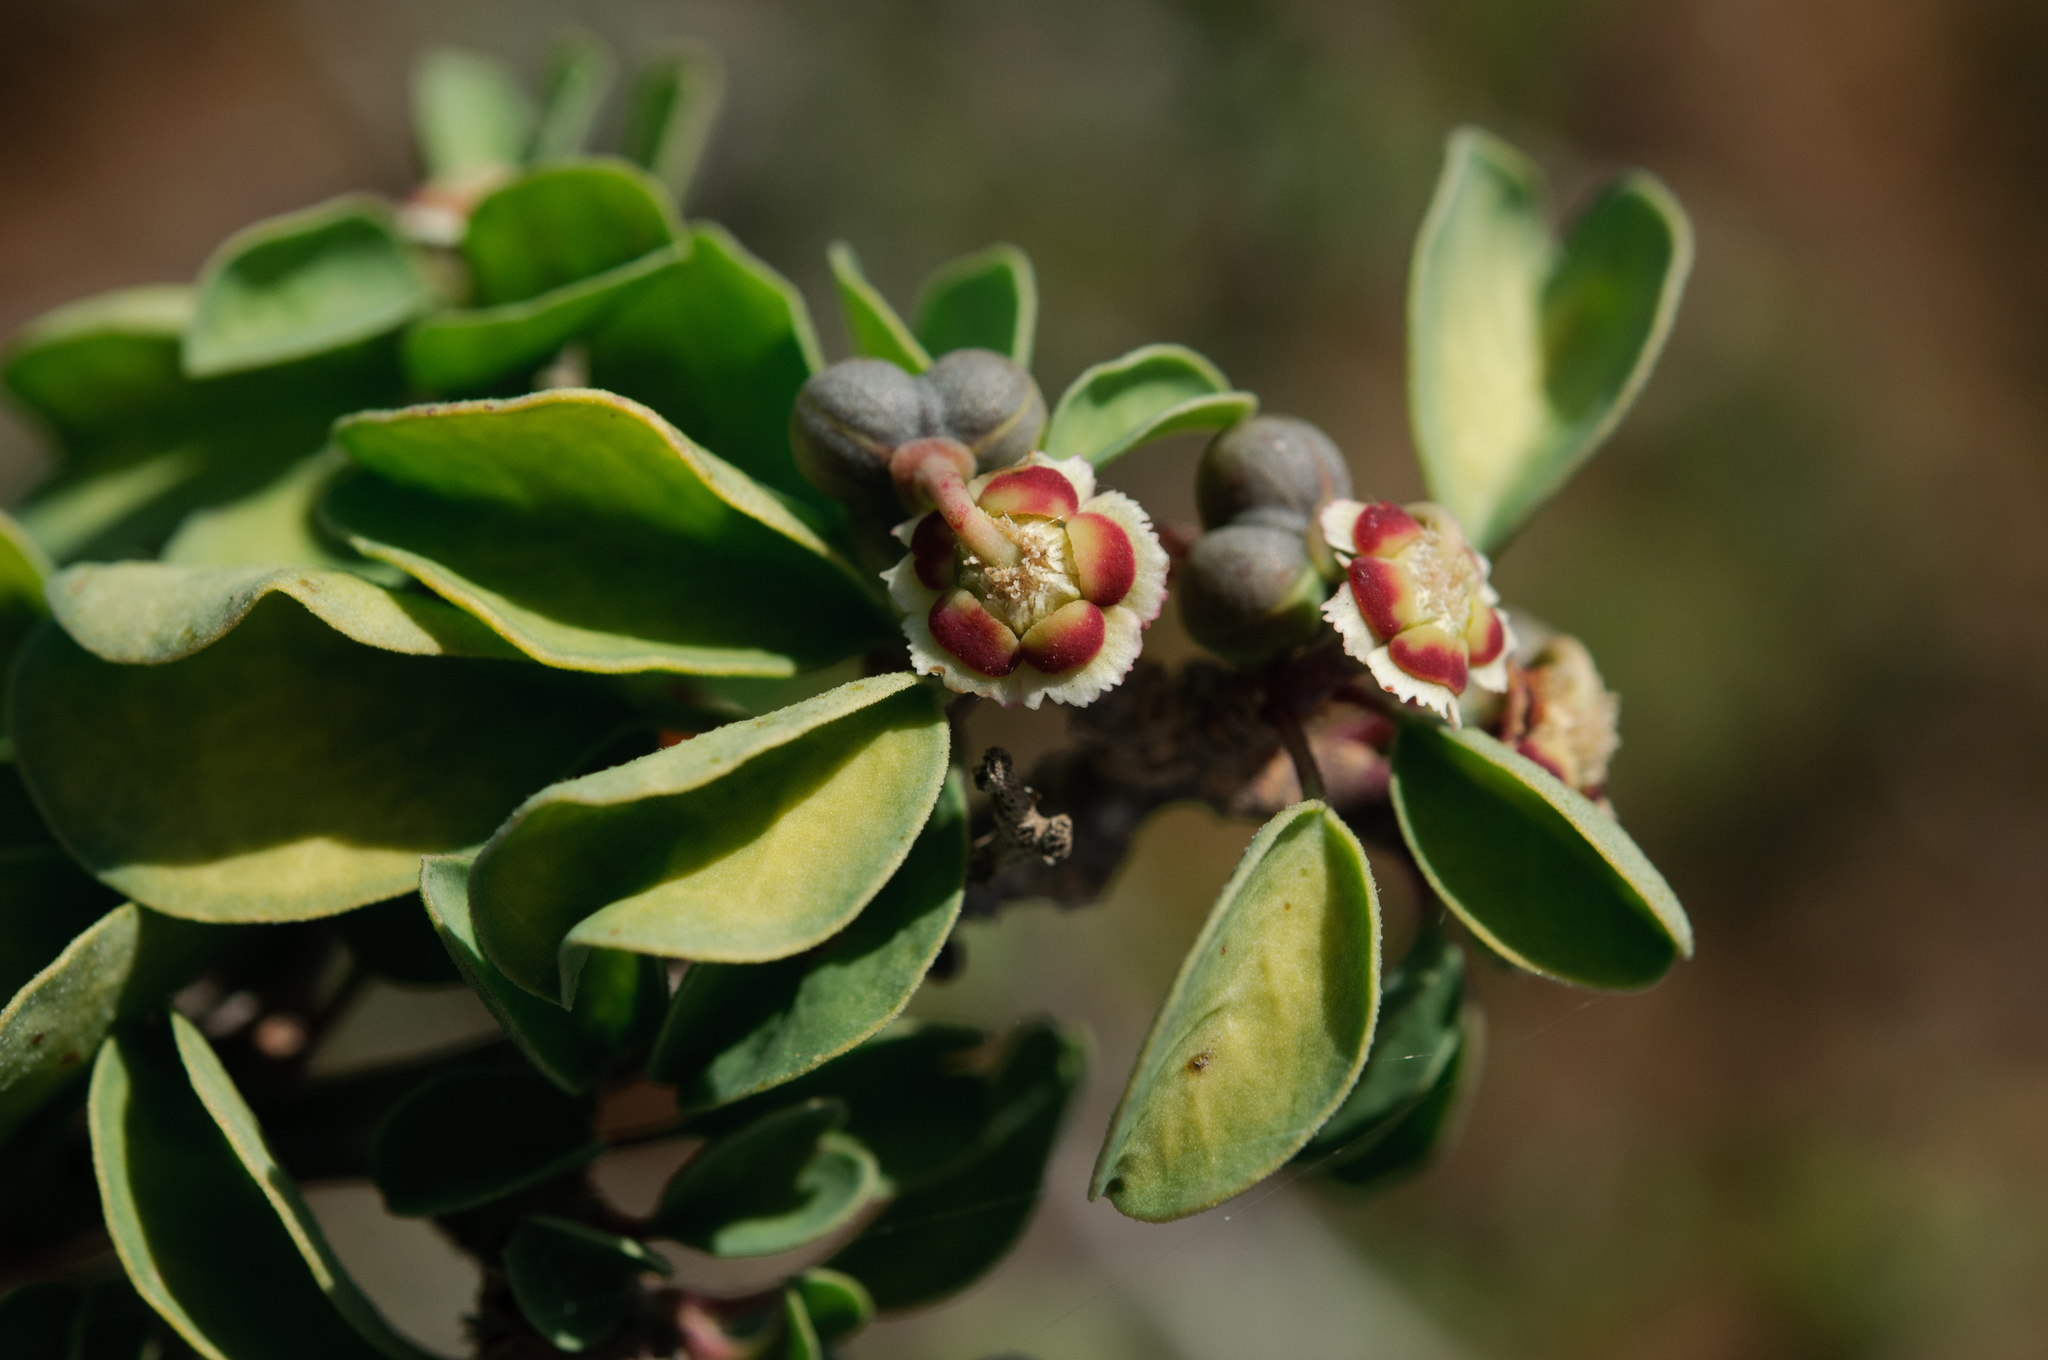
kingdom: Plantae
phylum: Tracheophyta
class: Magnoliopsida
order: Malpighiales
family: Euphorbiaceae
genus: Euphorbia
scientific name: Euphorbia misera
